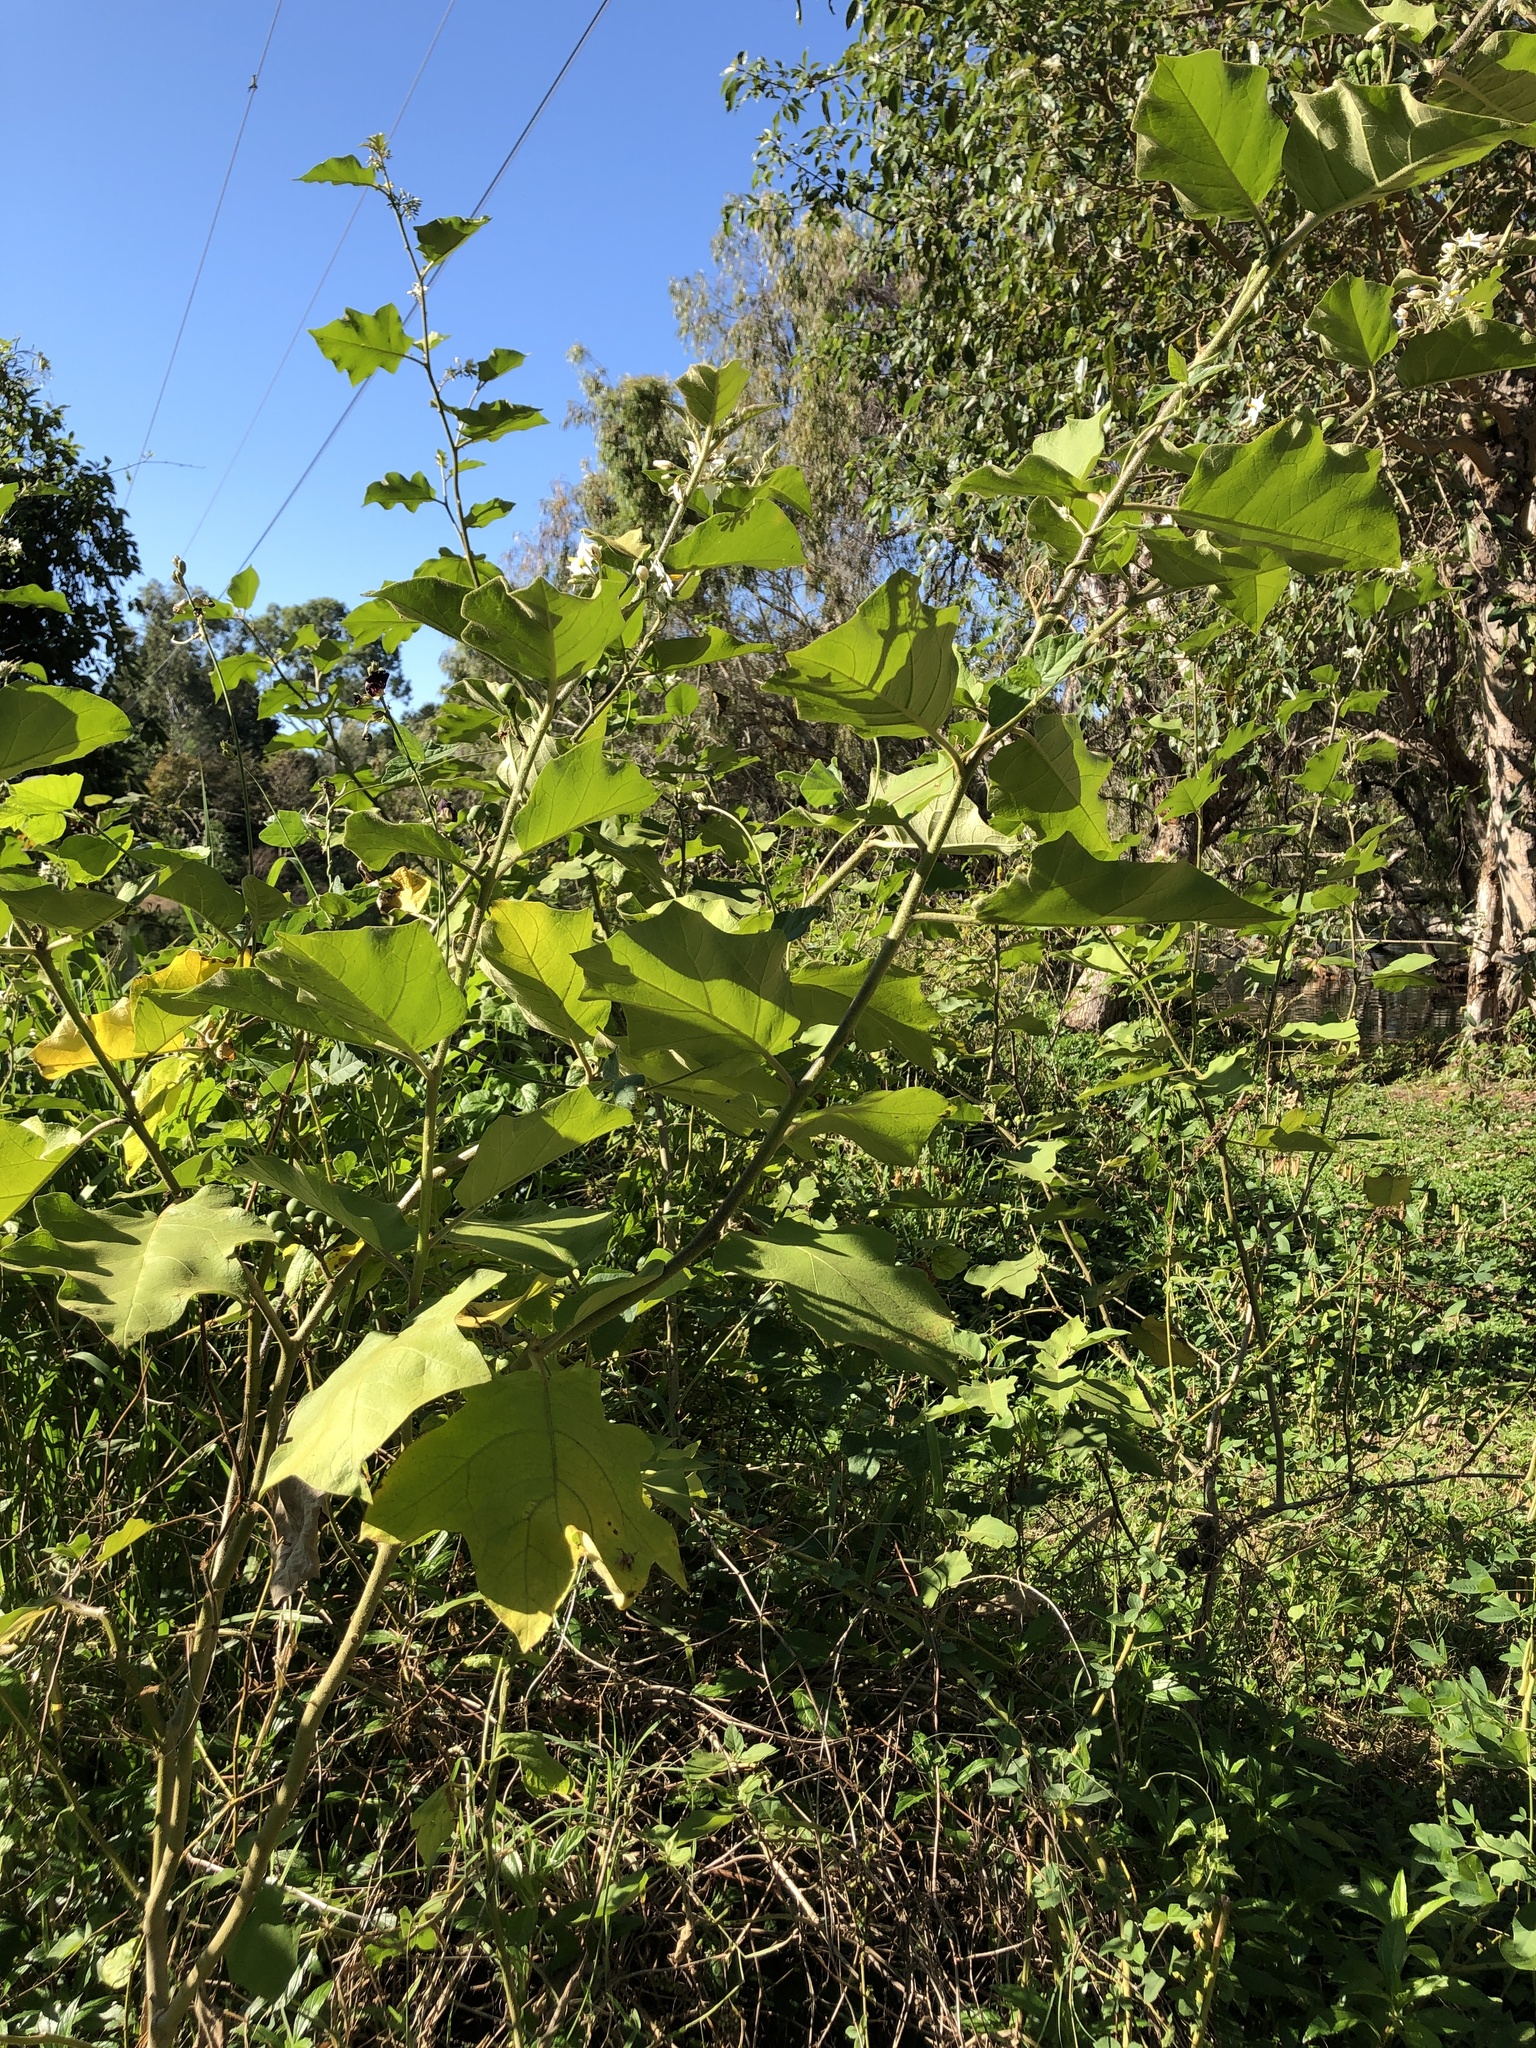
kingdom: Plantae
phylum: Tracheophyta
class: Magnoliopsida
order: Solanales
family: Solanaceae
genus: Solanum
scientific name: Solanum torvum
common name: Turkey berry
